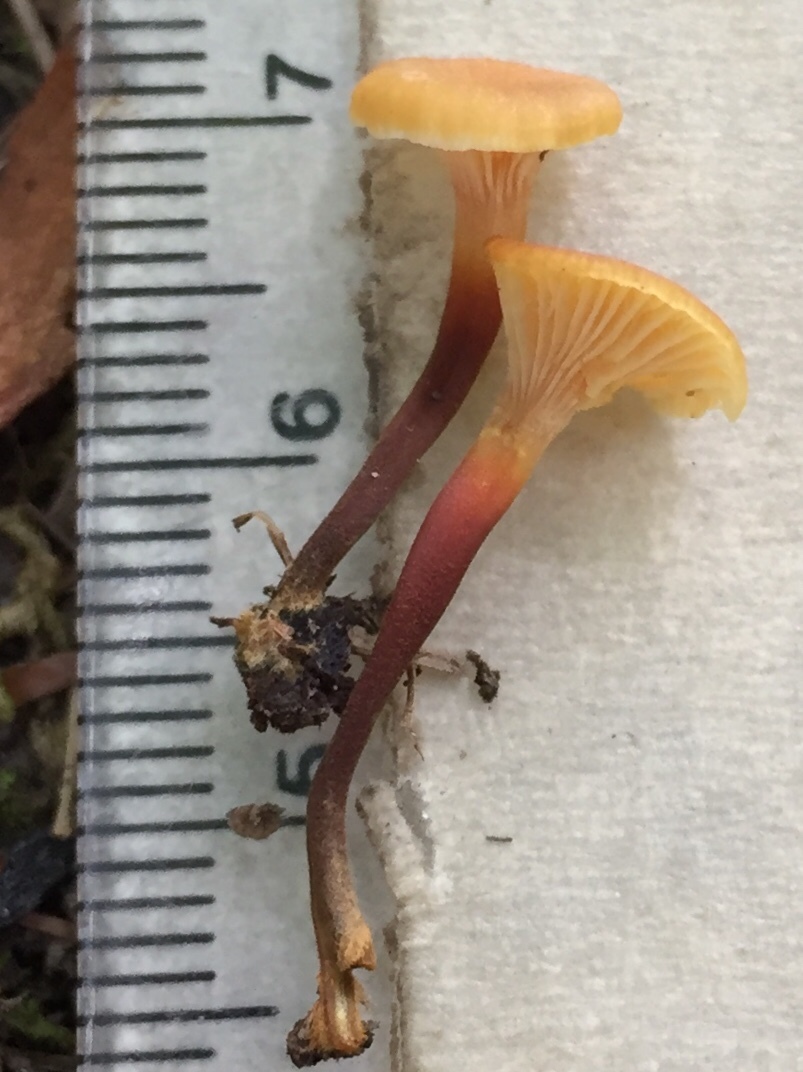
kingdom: Fungi
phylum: Basidiomycota
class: Agaricomycetes
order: Agaricales
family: Mycenaceae
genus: Xeromphalina
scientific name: Xeromphalina campanella
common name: Pinewood gingertail
